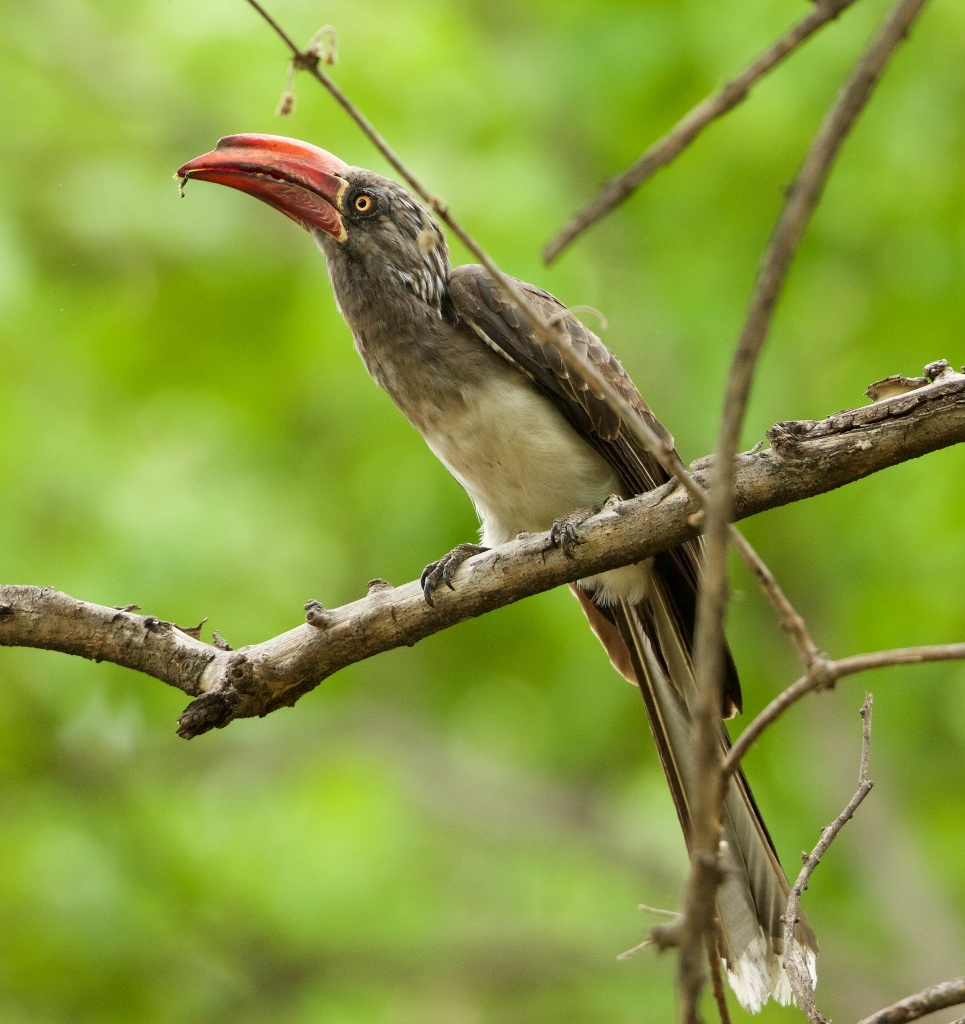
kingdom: Animalia
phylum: Chordata
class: Aves
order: Bucerotiformes
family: Bucerotidae
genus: Lophoceros
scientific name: Lophoceros alboterminatus
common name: Crowned hornbill
